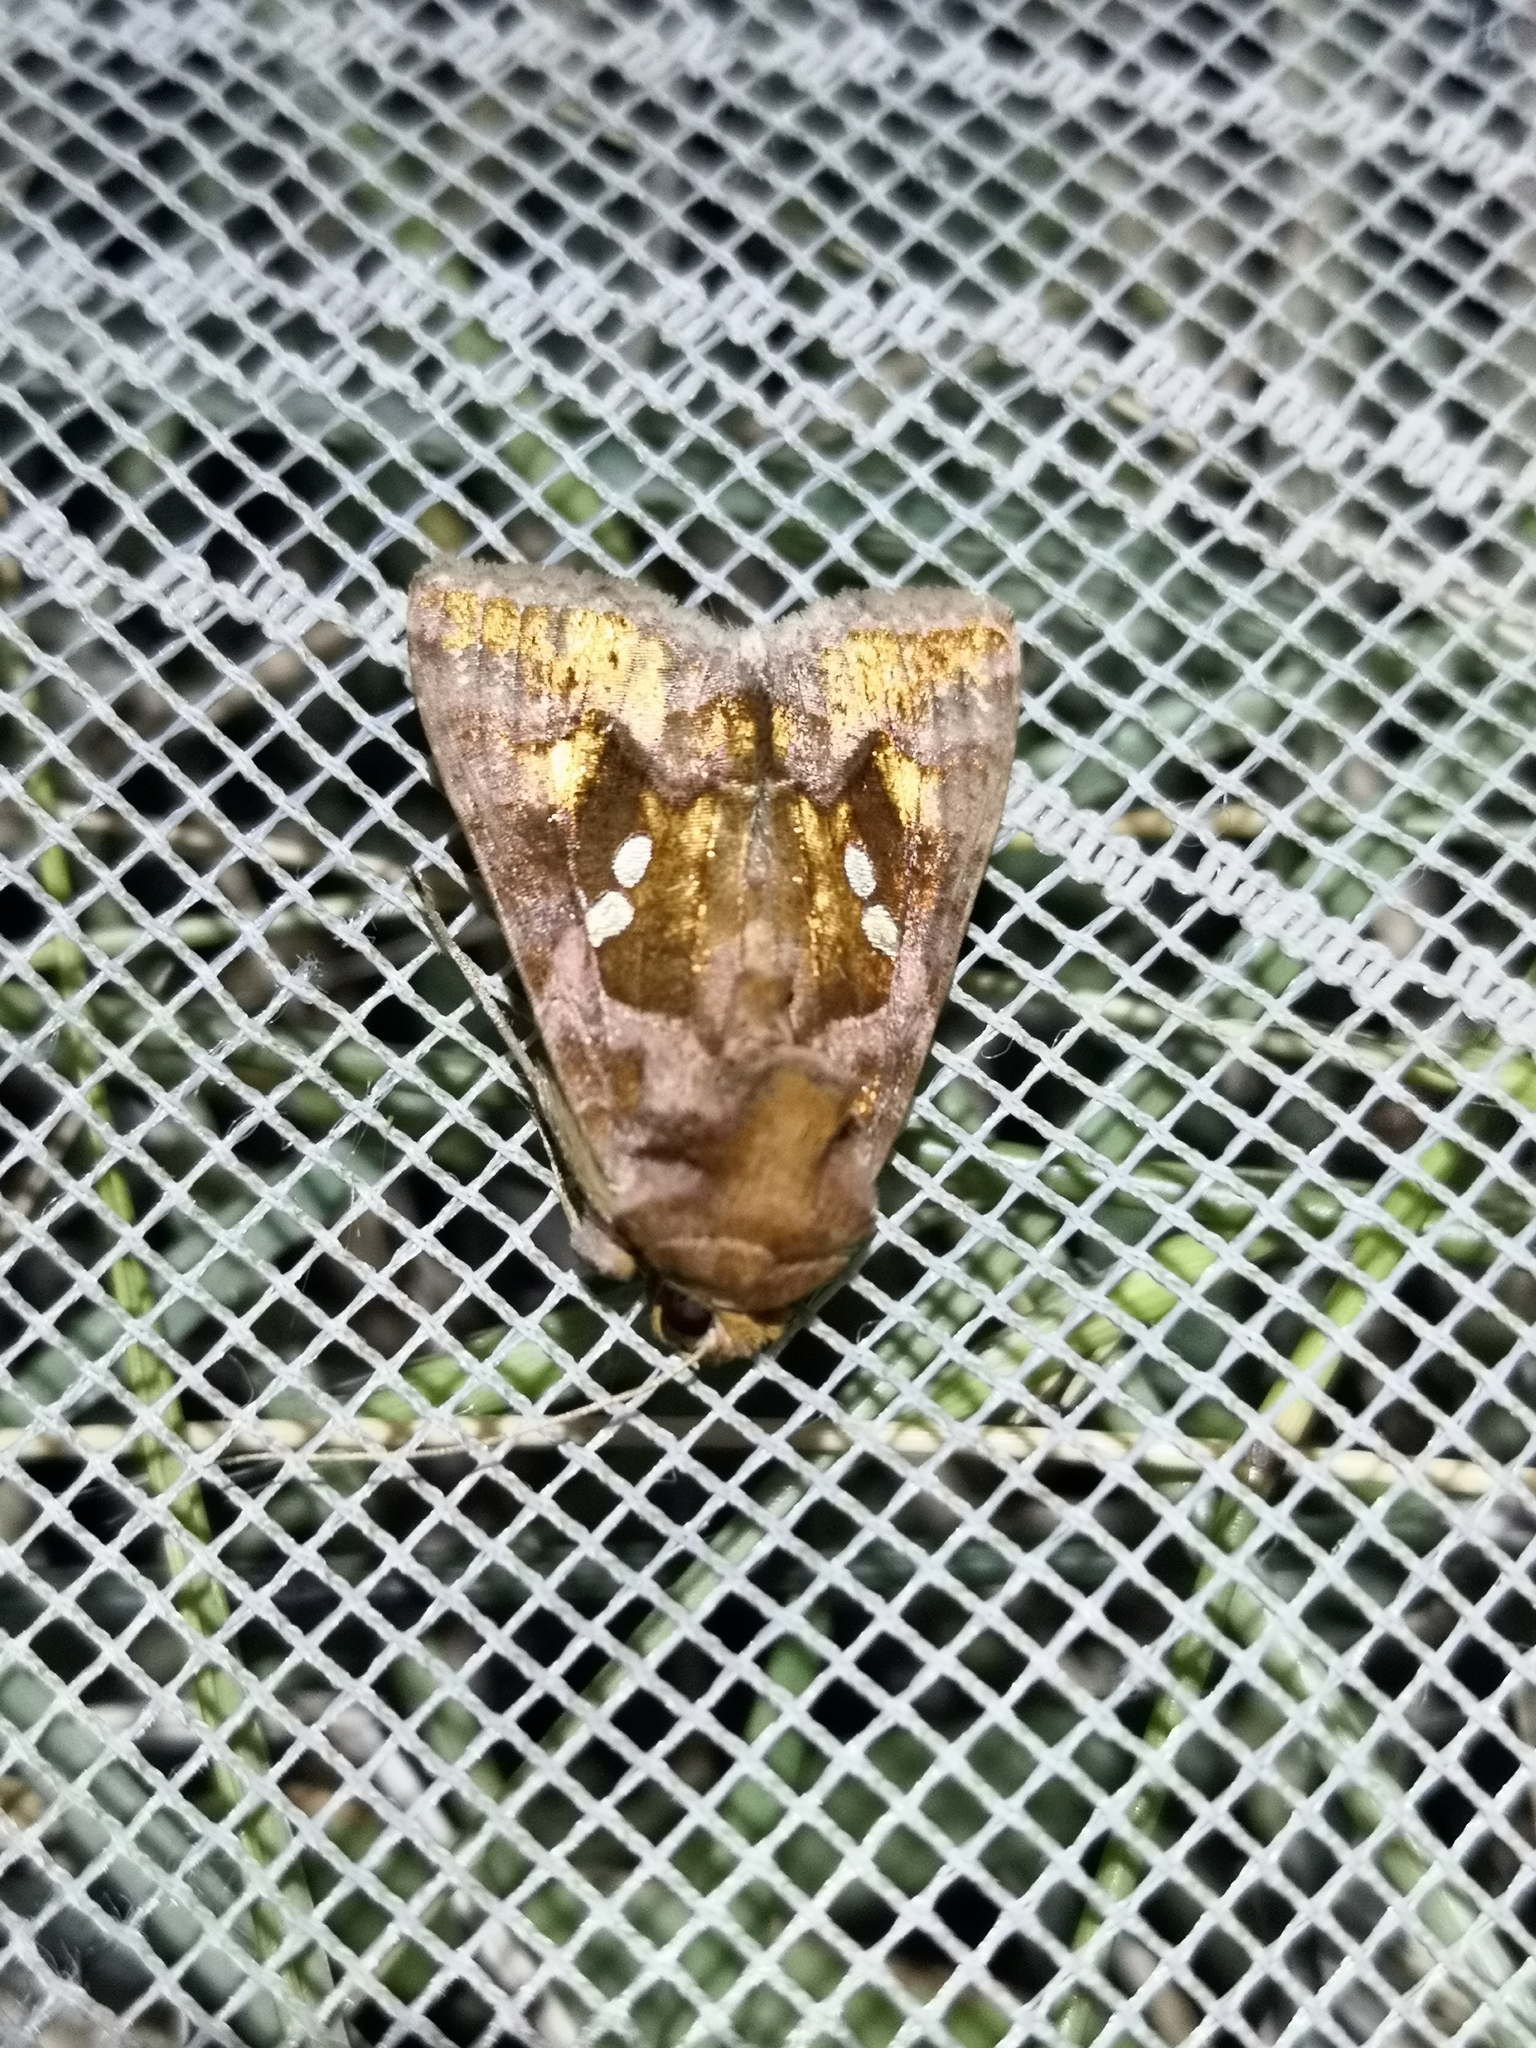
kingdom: Animalia
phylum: Arthropoda
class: Insecta
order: Lepidoptera
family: Noctuidae
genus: Chrysodeixis
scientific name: Chrysodeixis chalcites
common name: Golden twin-spot
